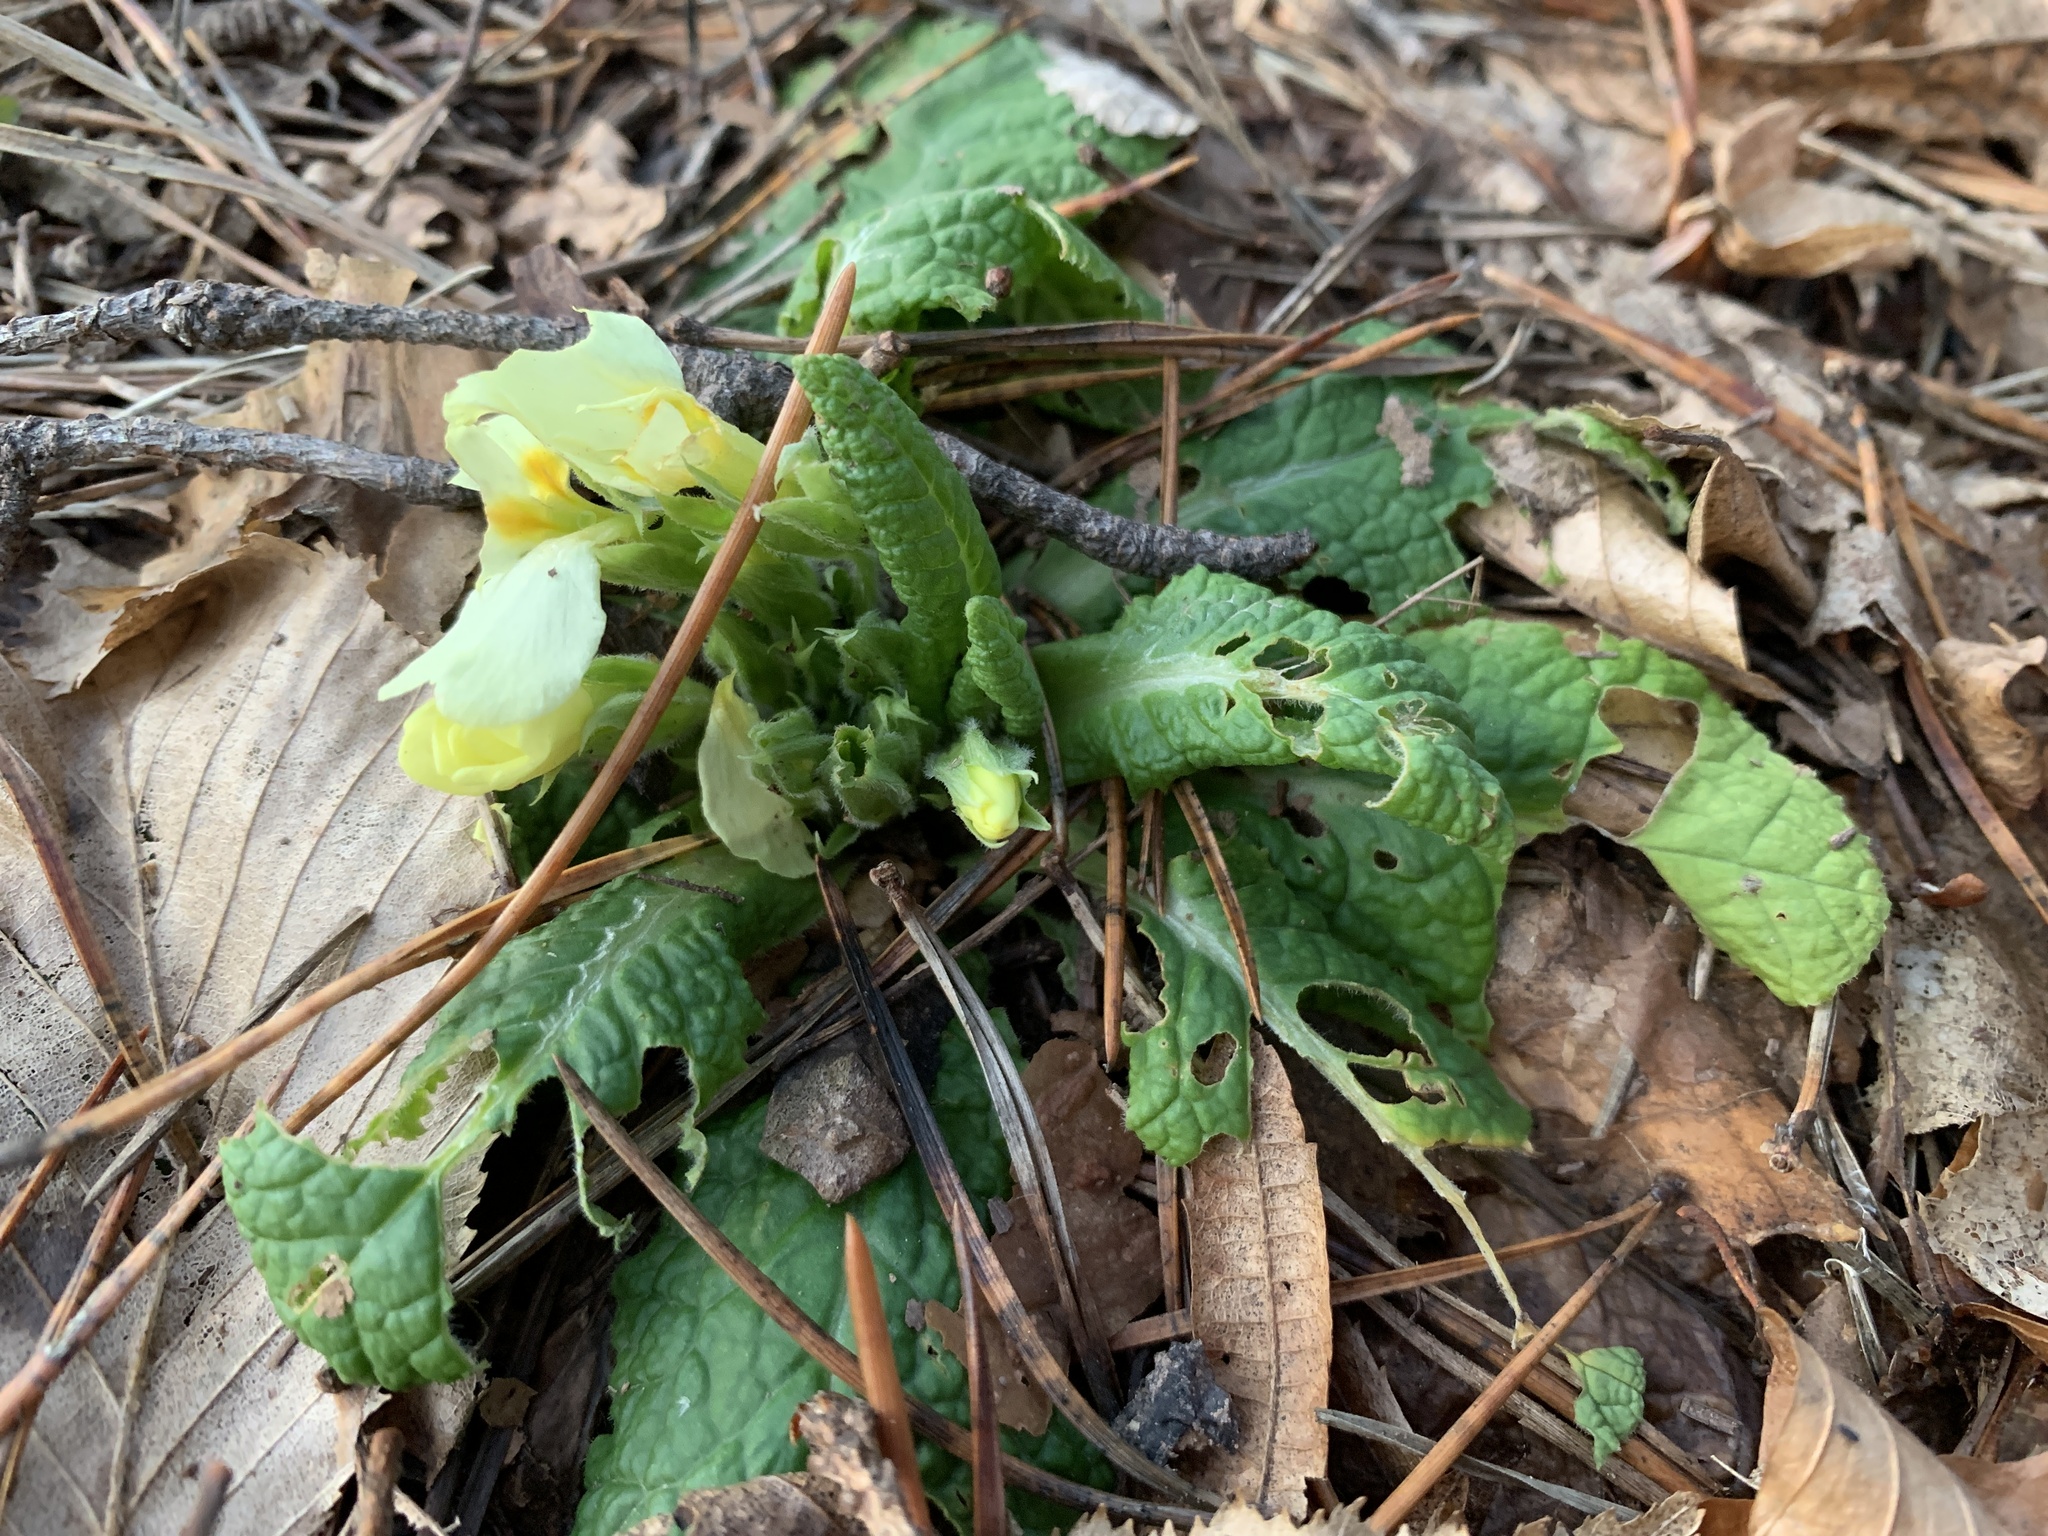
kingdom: Plantae
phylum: Tracheophyta
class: Magnoliopsida
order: Ericales
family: Primulaceae
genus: Primula
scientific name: Primula vulgaris
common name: Primrose
